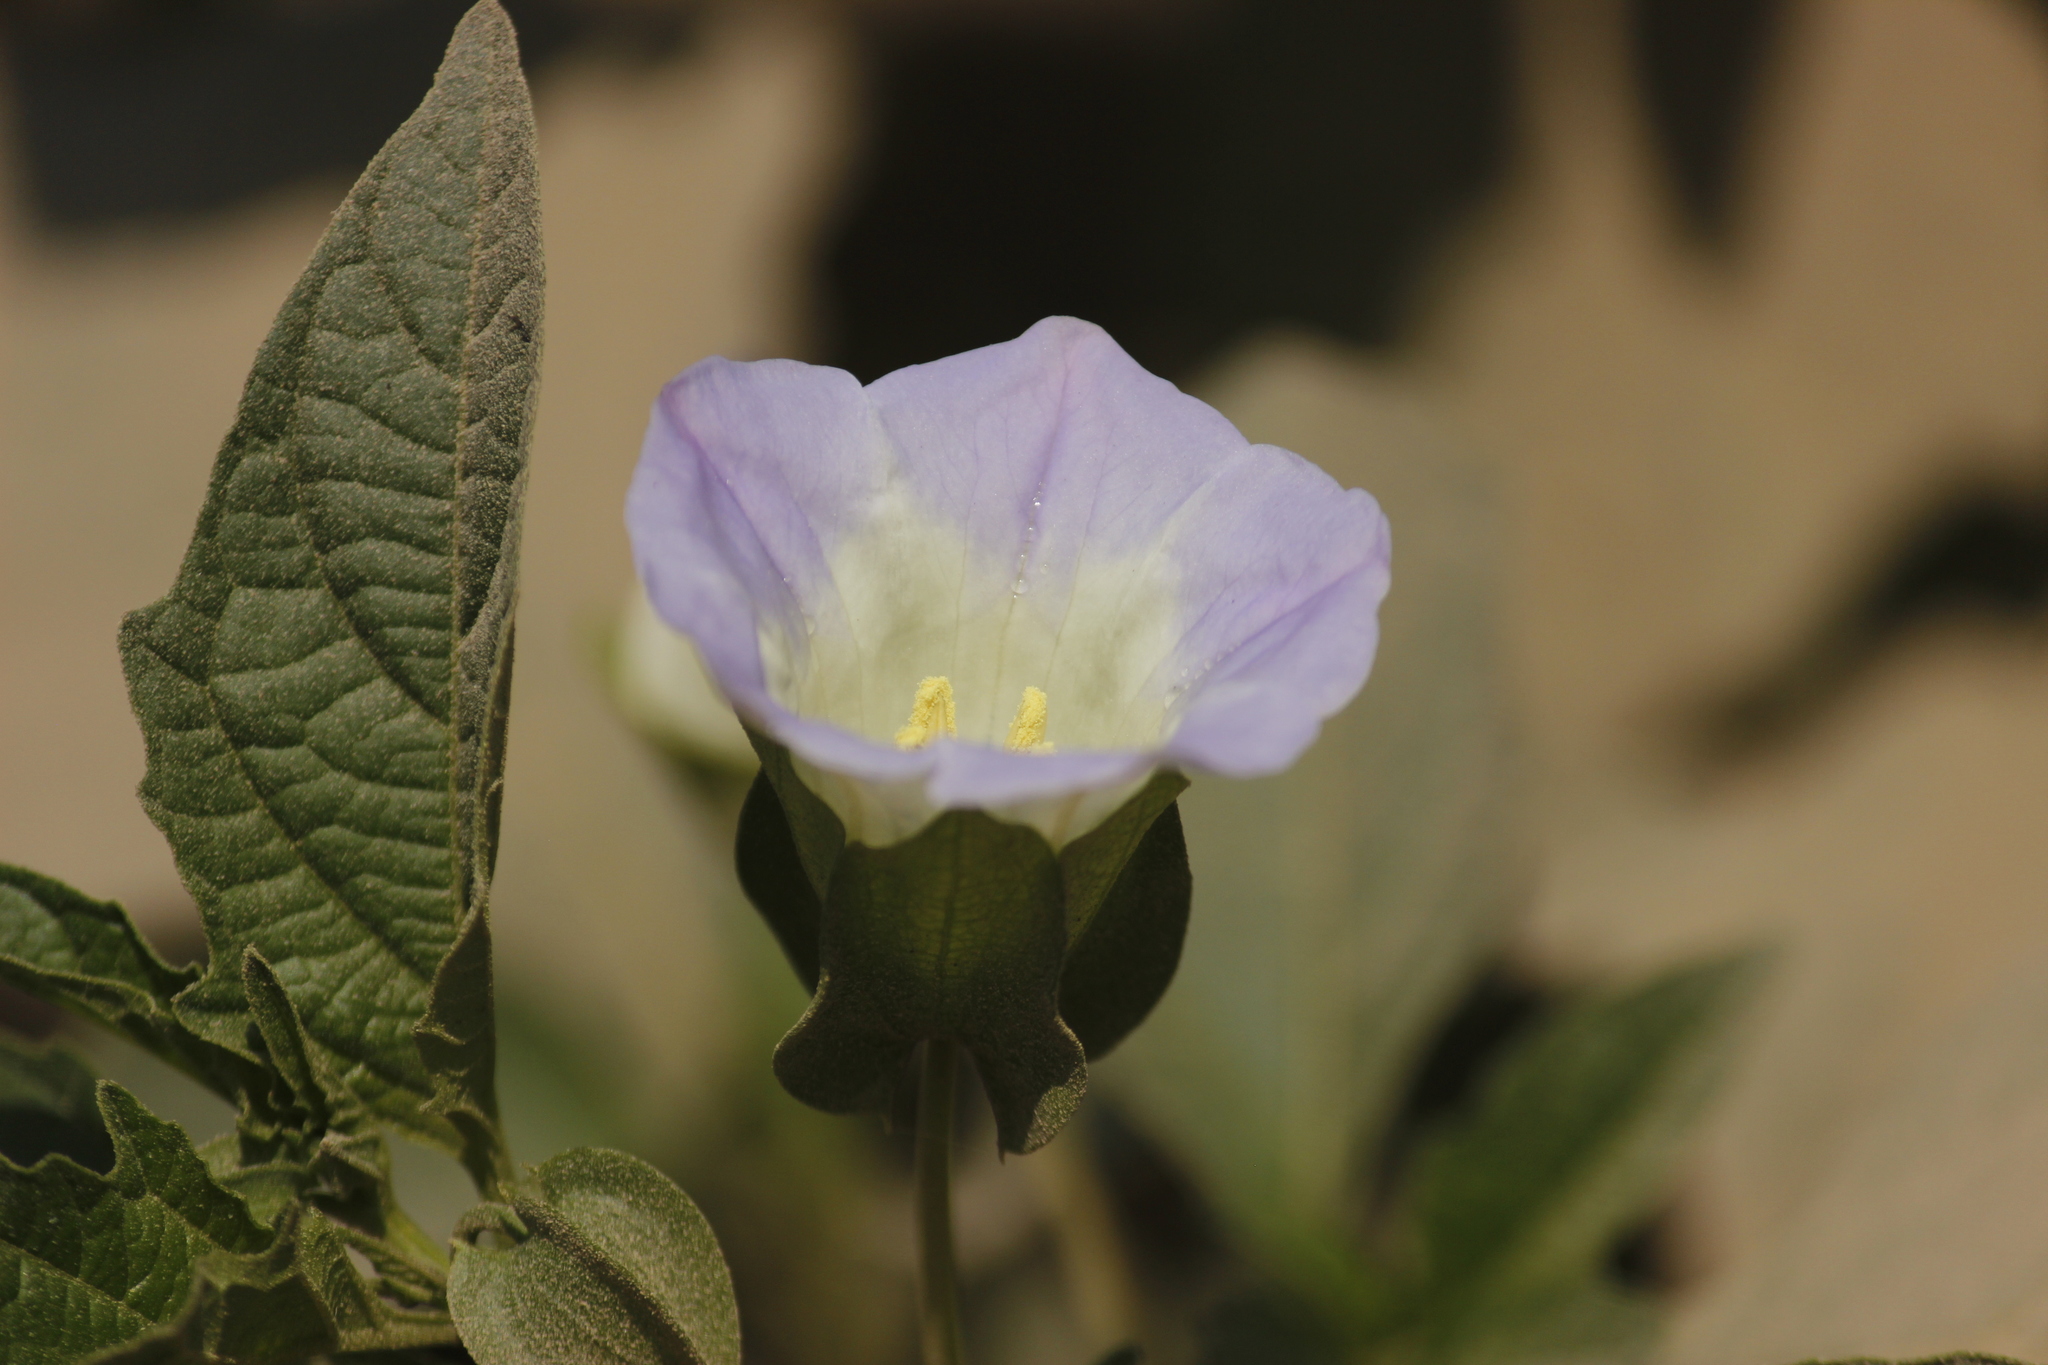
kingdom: Plantae
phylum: Tracheophyta
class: Magnoliopsida
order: Solanales
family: Solanaceae
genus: Nicandra
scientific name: Nicandra physalodes
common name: Apple-of-peru
